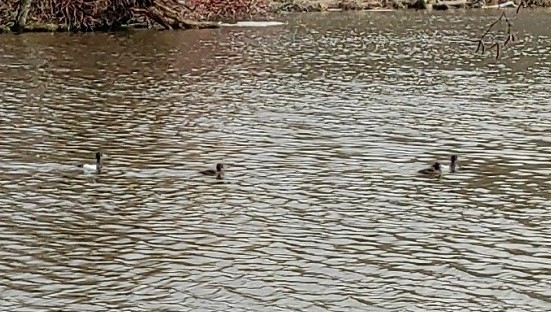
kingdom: Animalia
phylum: Chordata
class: Aves
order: Anseriformes
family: Anatidae
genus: Aythya
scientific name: Aythya fuligula
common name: Tufted duck
